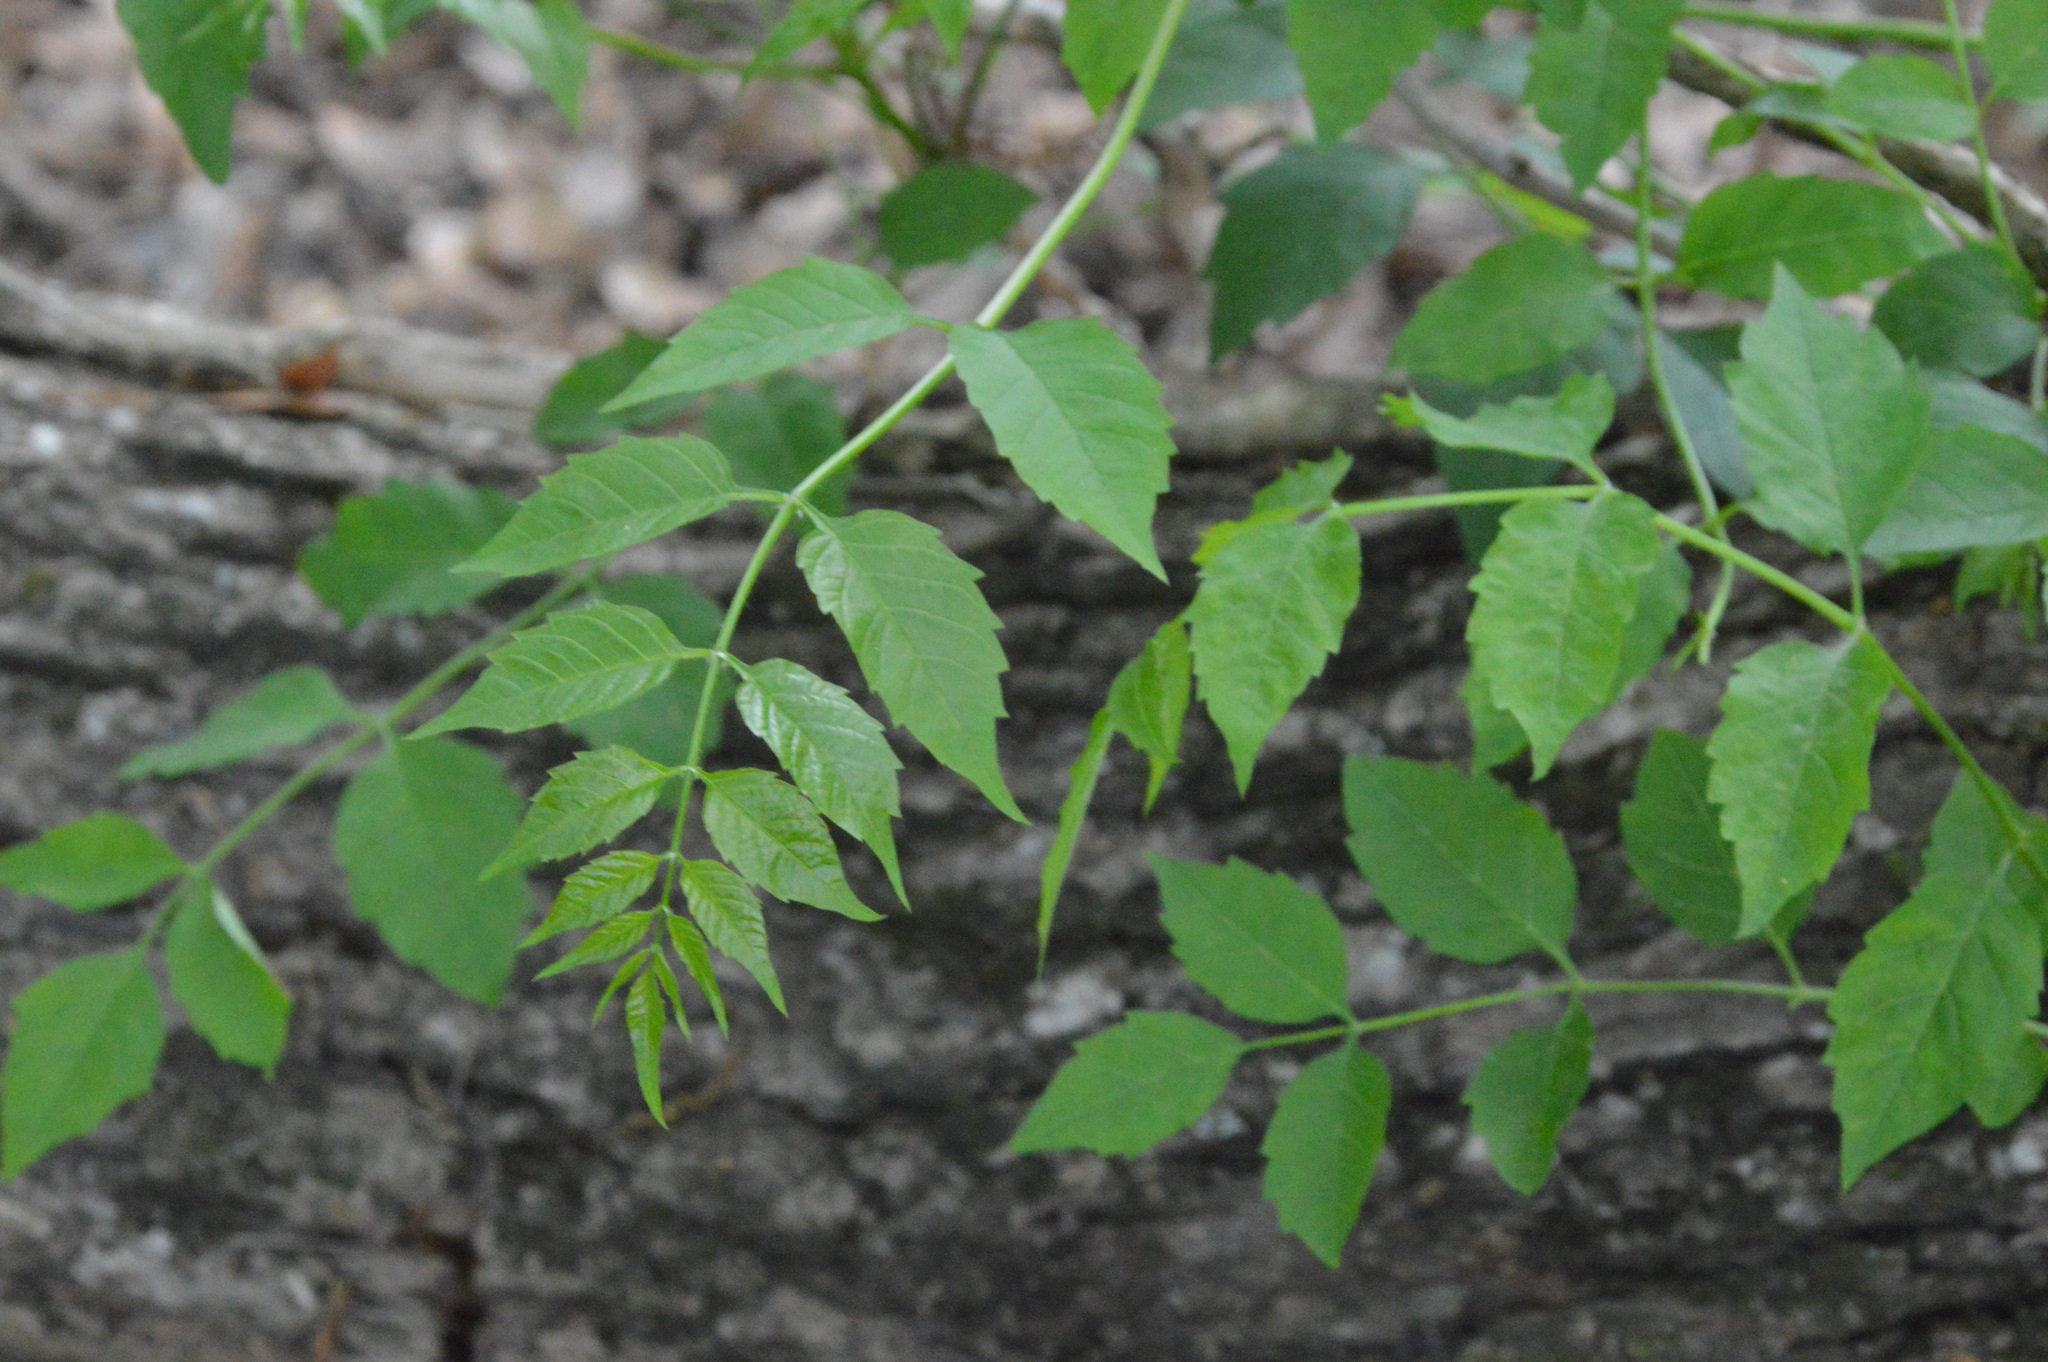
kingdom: Plantae
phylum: Tracheophyta
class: Magnoliopsida
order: Lamiales
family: Bignoniaceae
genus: Campsis
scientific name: Campsis radicans
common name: Trumpet-creeper
